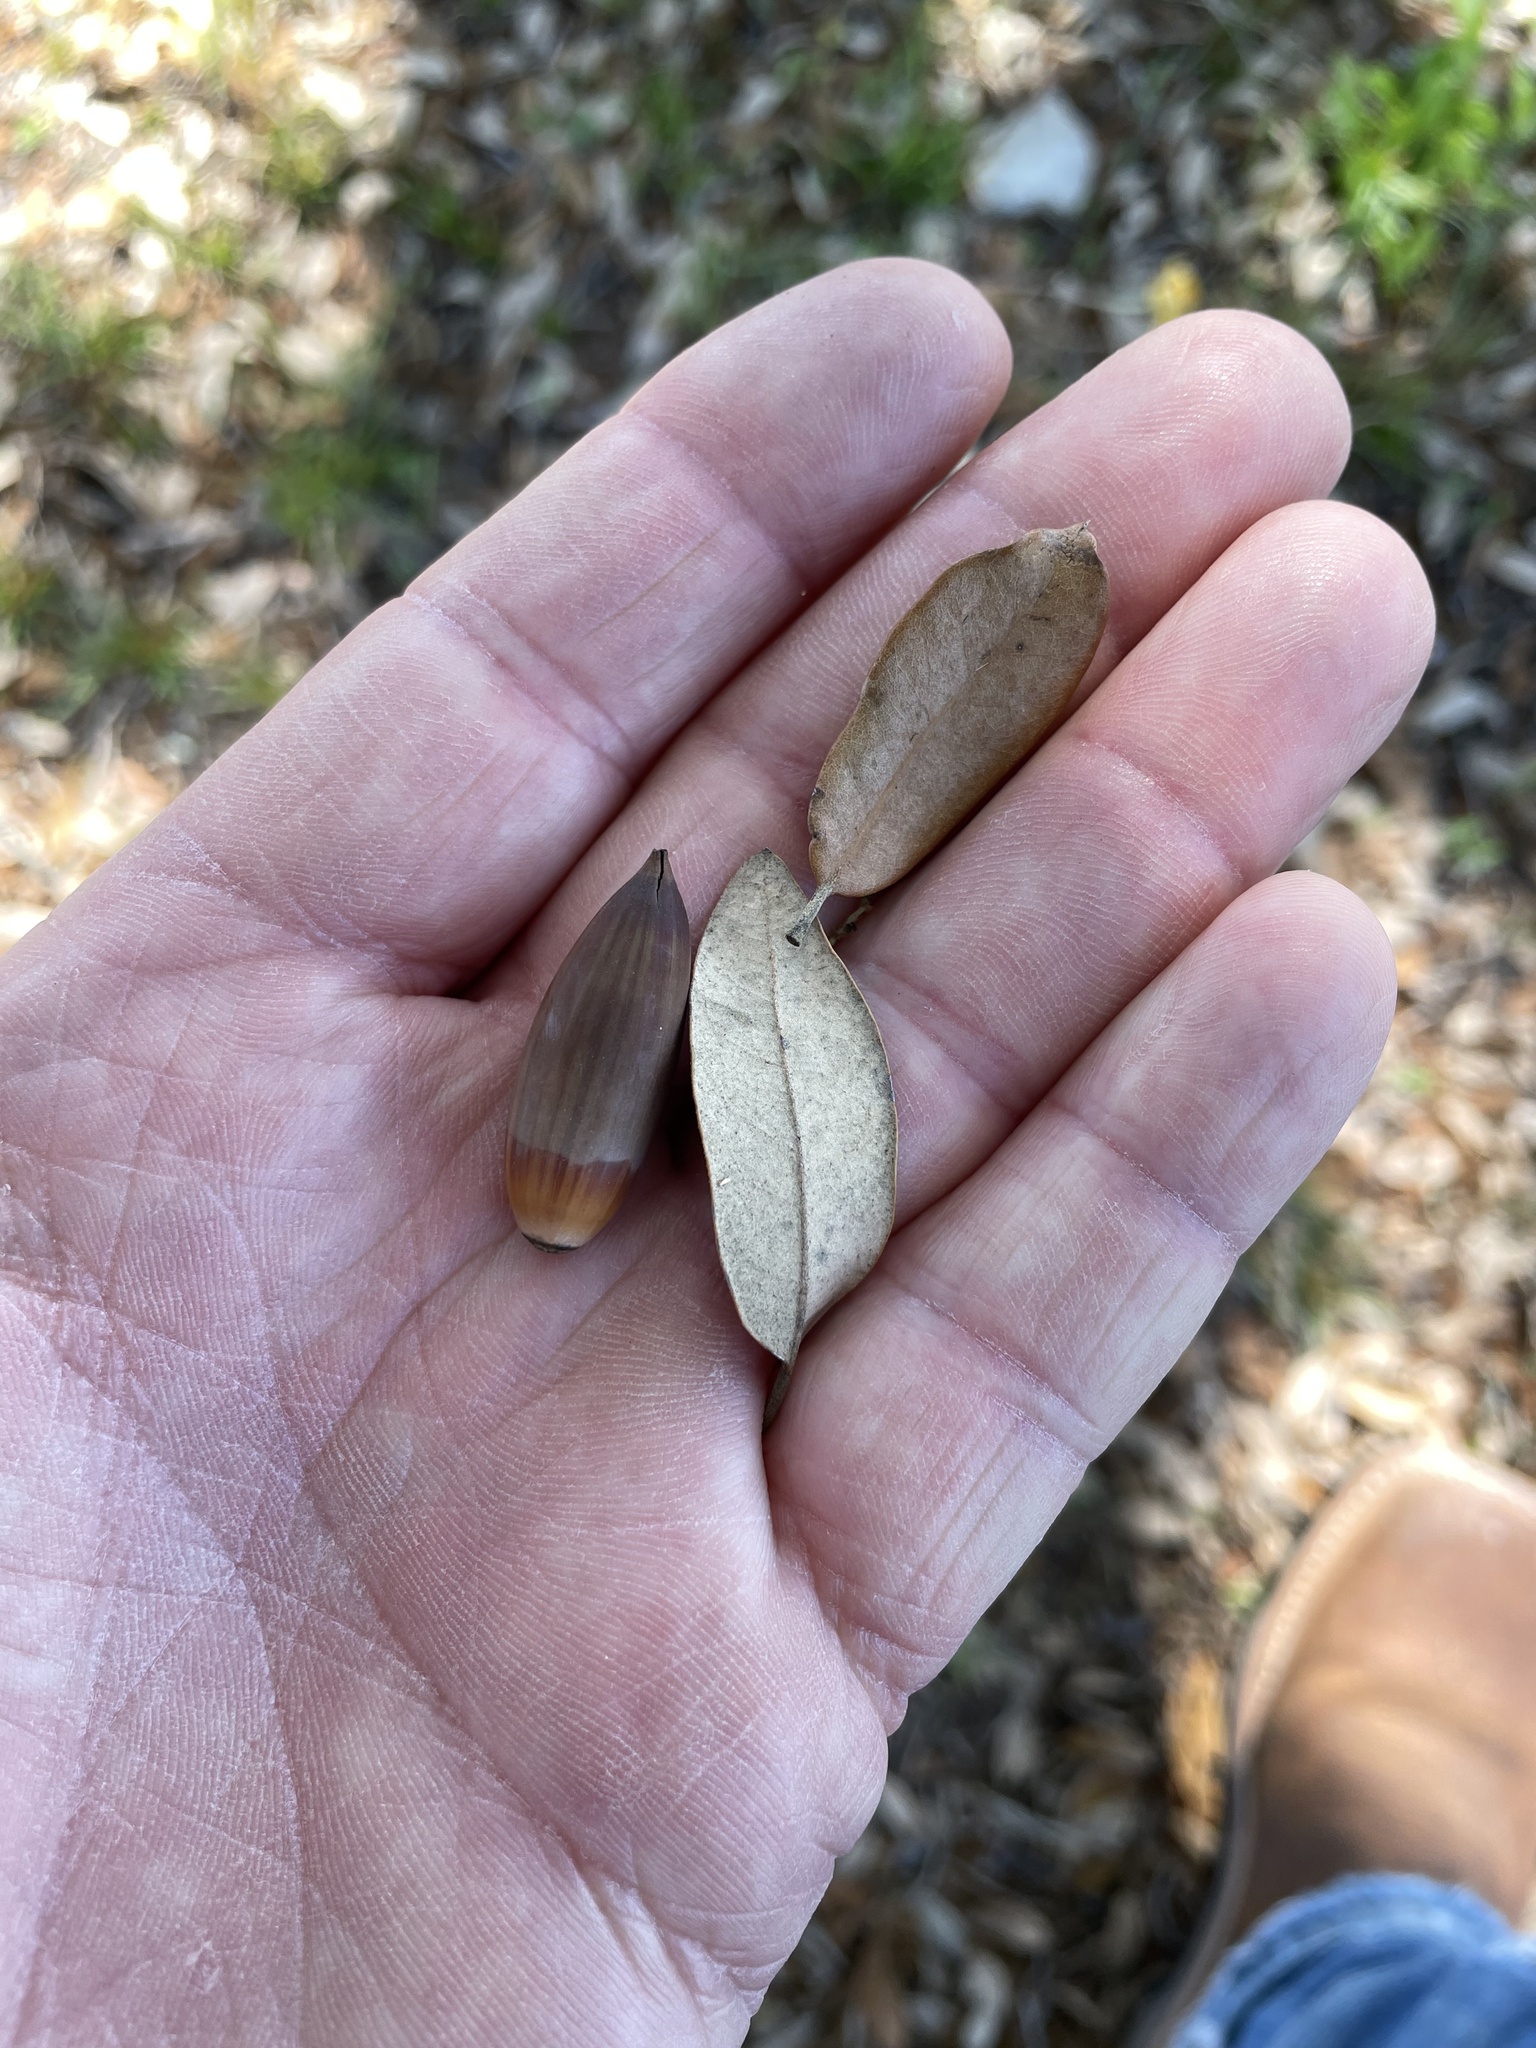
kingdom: Plantae
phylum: Tracheophyta
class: Magnoliopsida
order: Fagales
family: Fagaceae
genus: Quercus
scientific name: Quercus fusiformis
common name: Texas live oak
